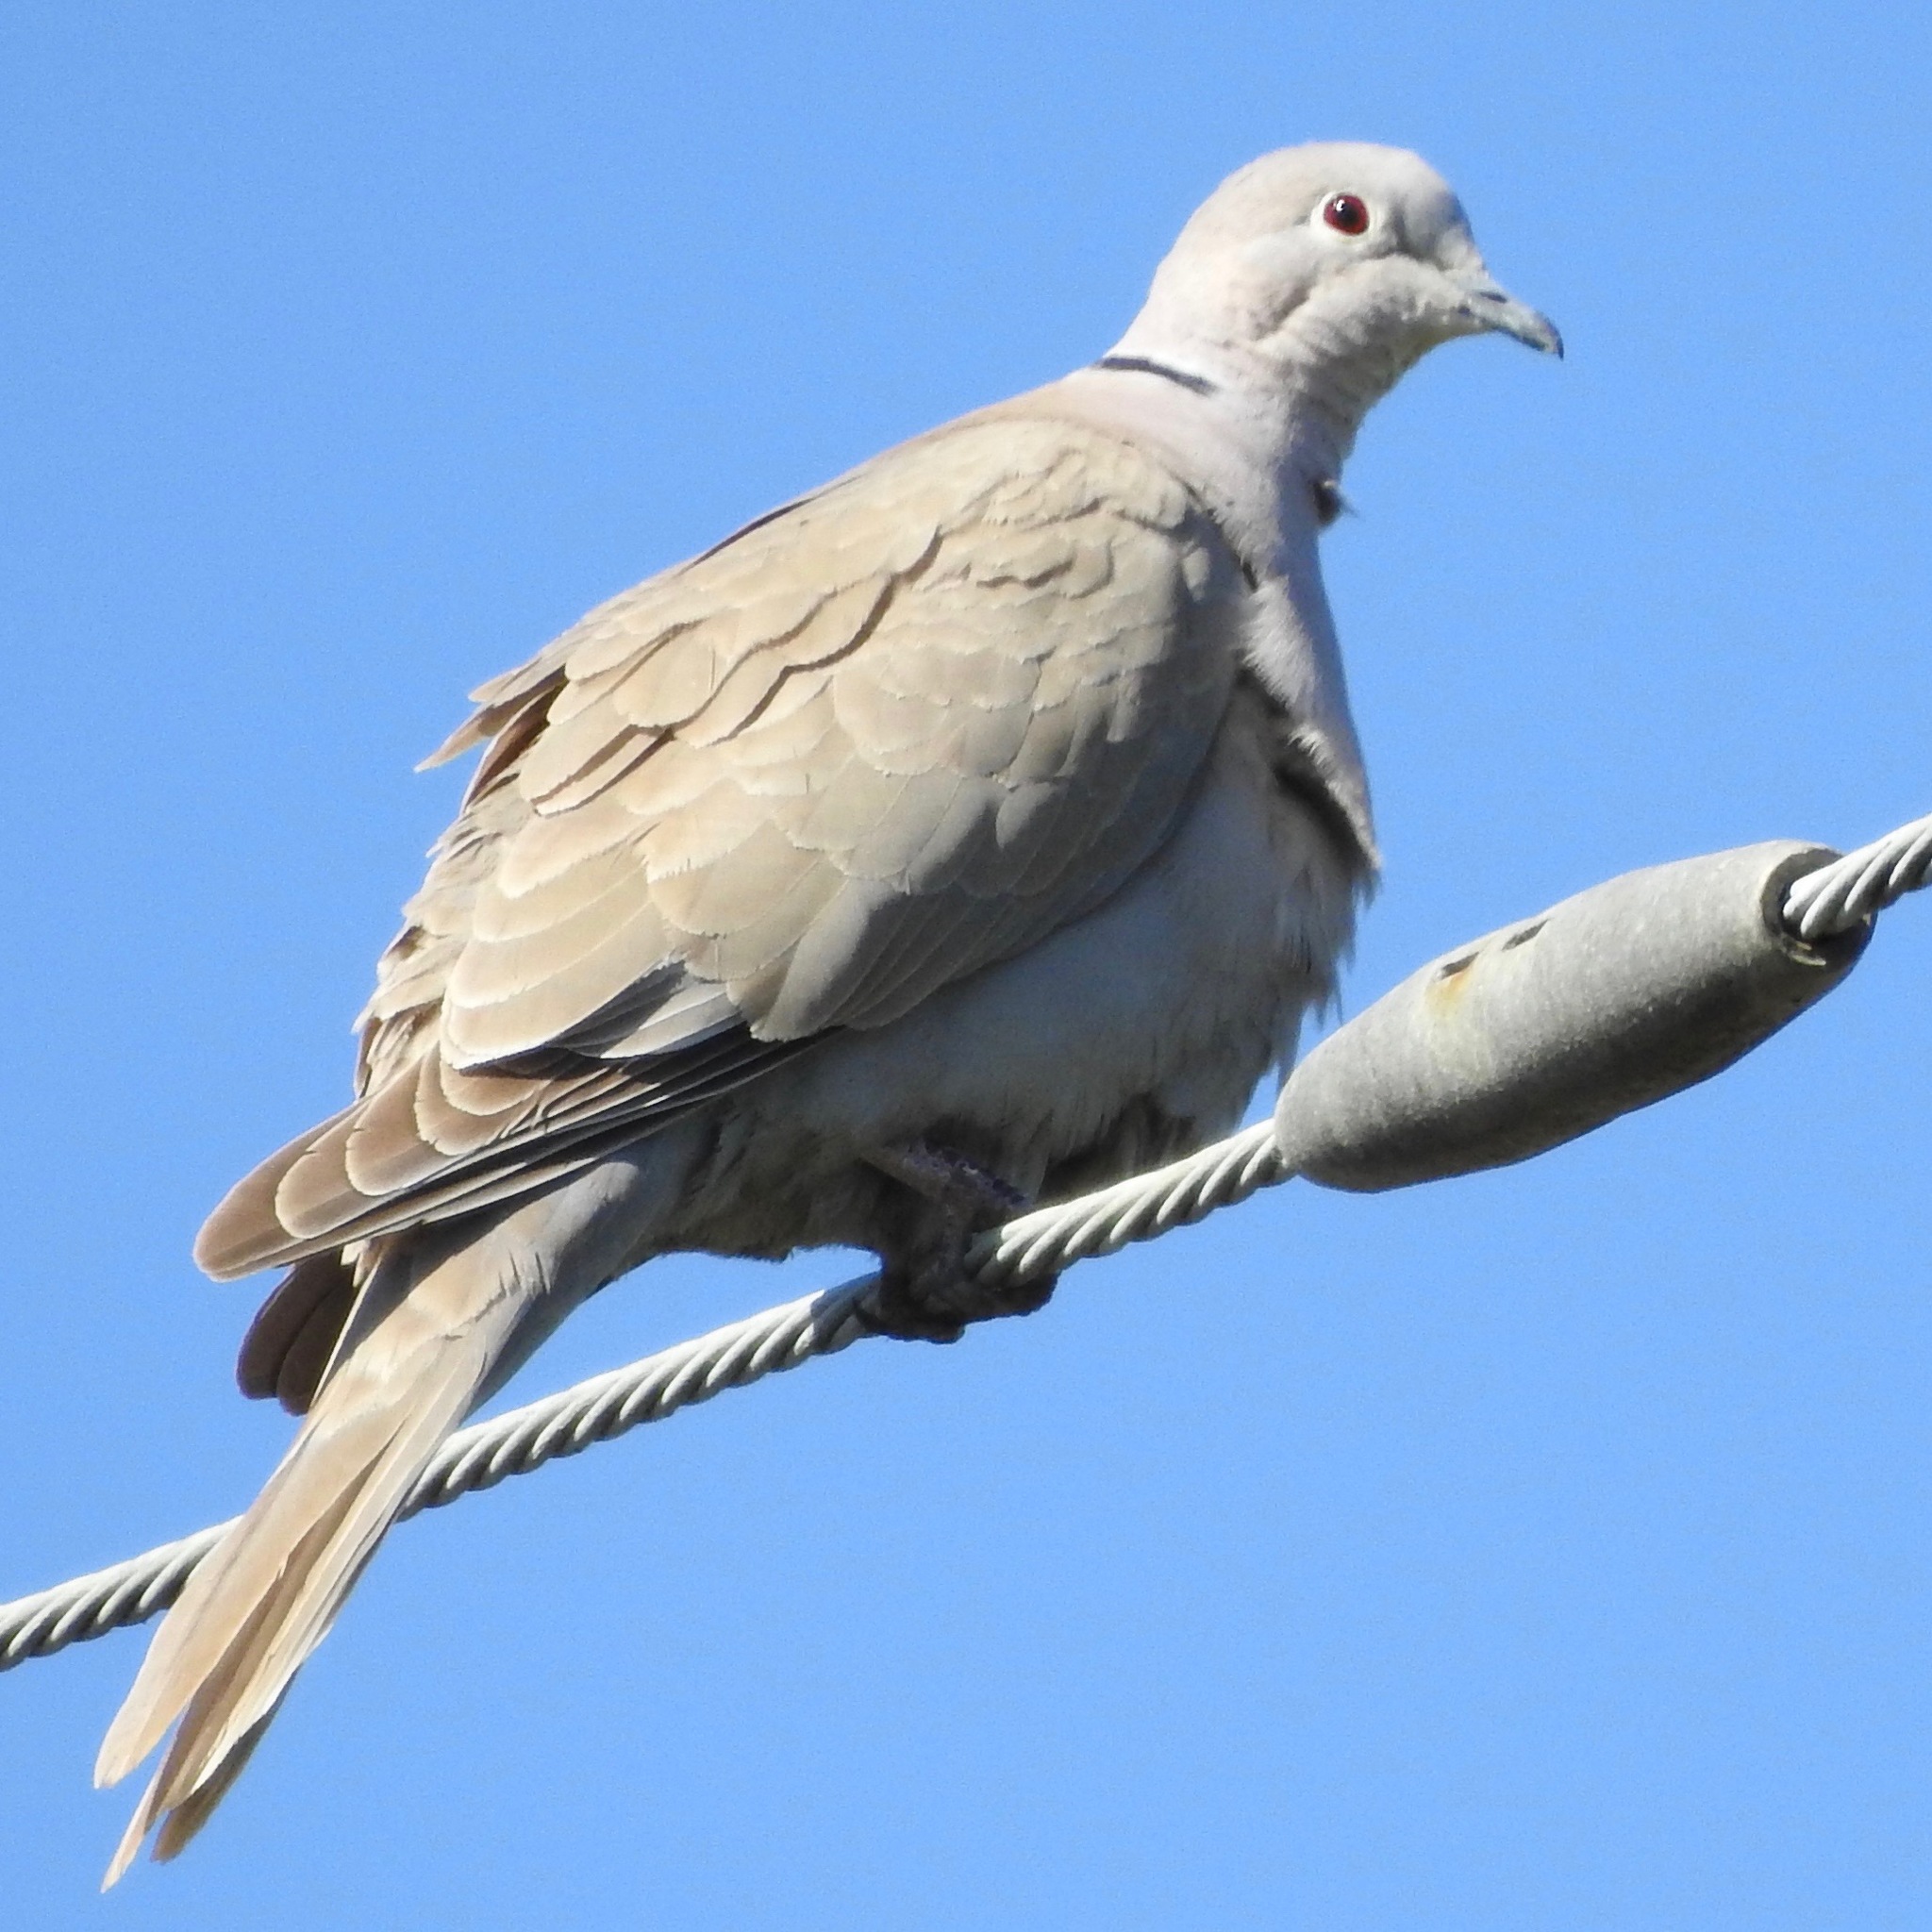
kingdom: Animalia
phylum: Chordata
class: Aves
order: Columbiformes
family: Columbidae
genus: Streptopelia
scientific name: Streptopelia decaocto
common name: Eurasian collared dove
